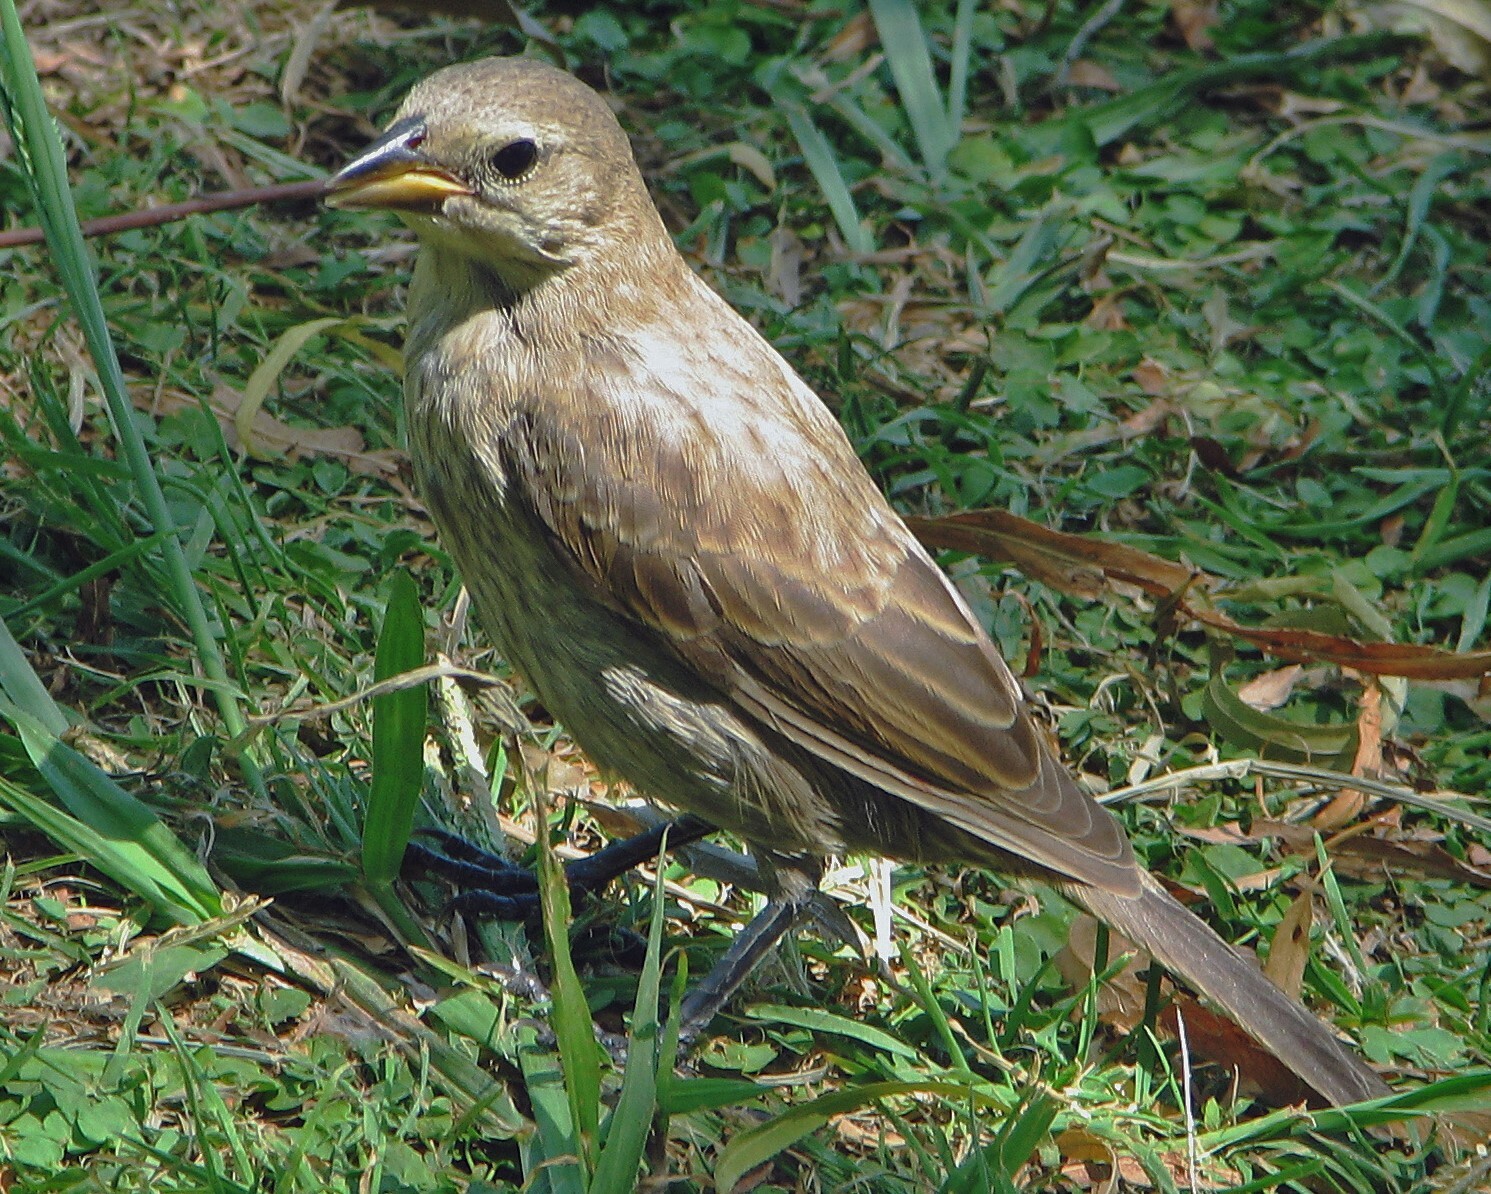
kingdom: Animalia
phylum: Chordata
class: Aves
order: Passeriformes
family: Icteridae
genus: Molothrus
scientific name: Molothrus bonariensis
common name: Shiny cowbird
